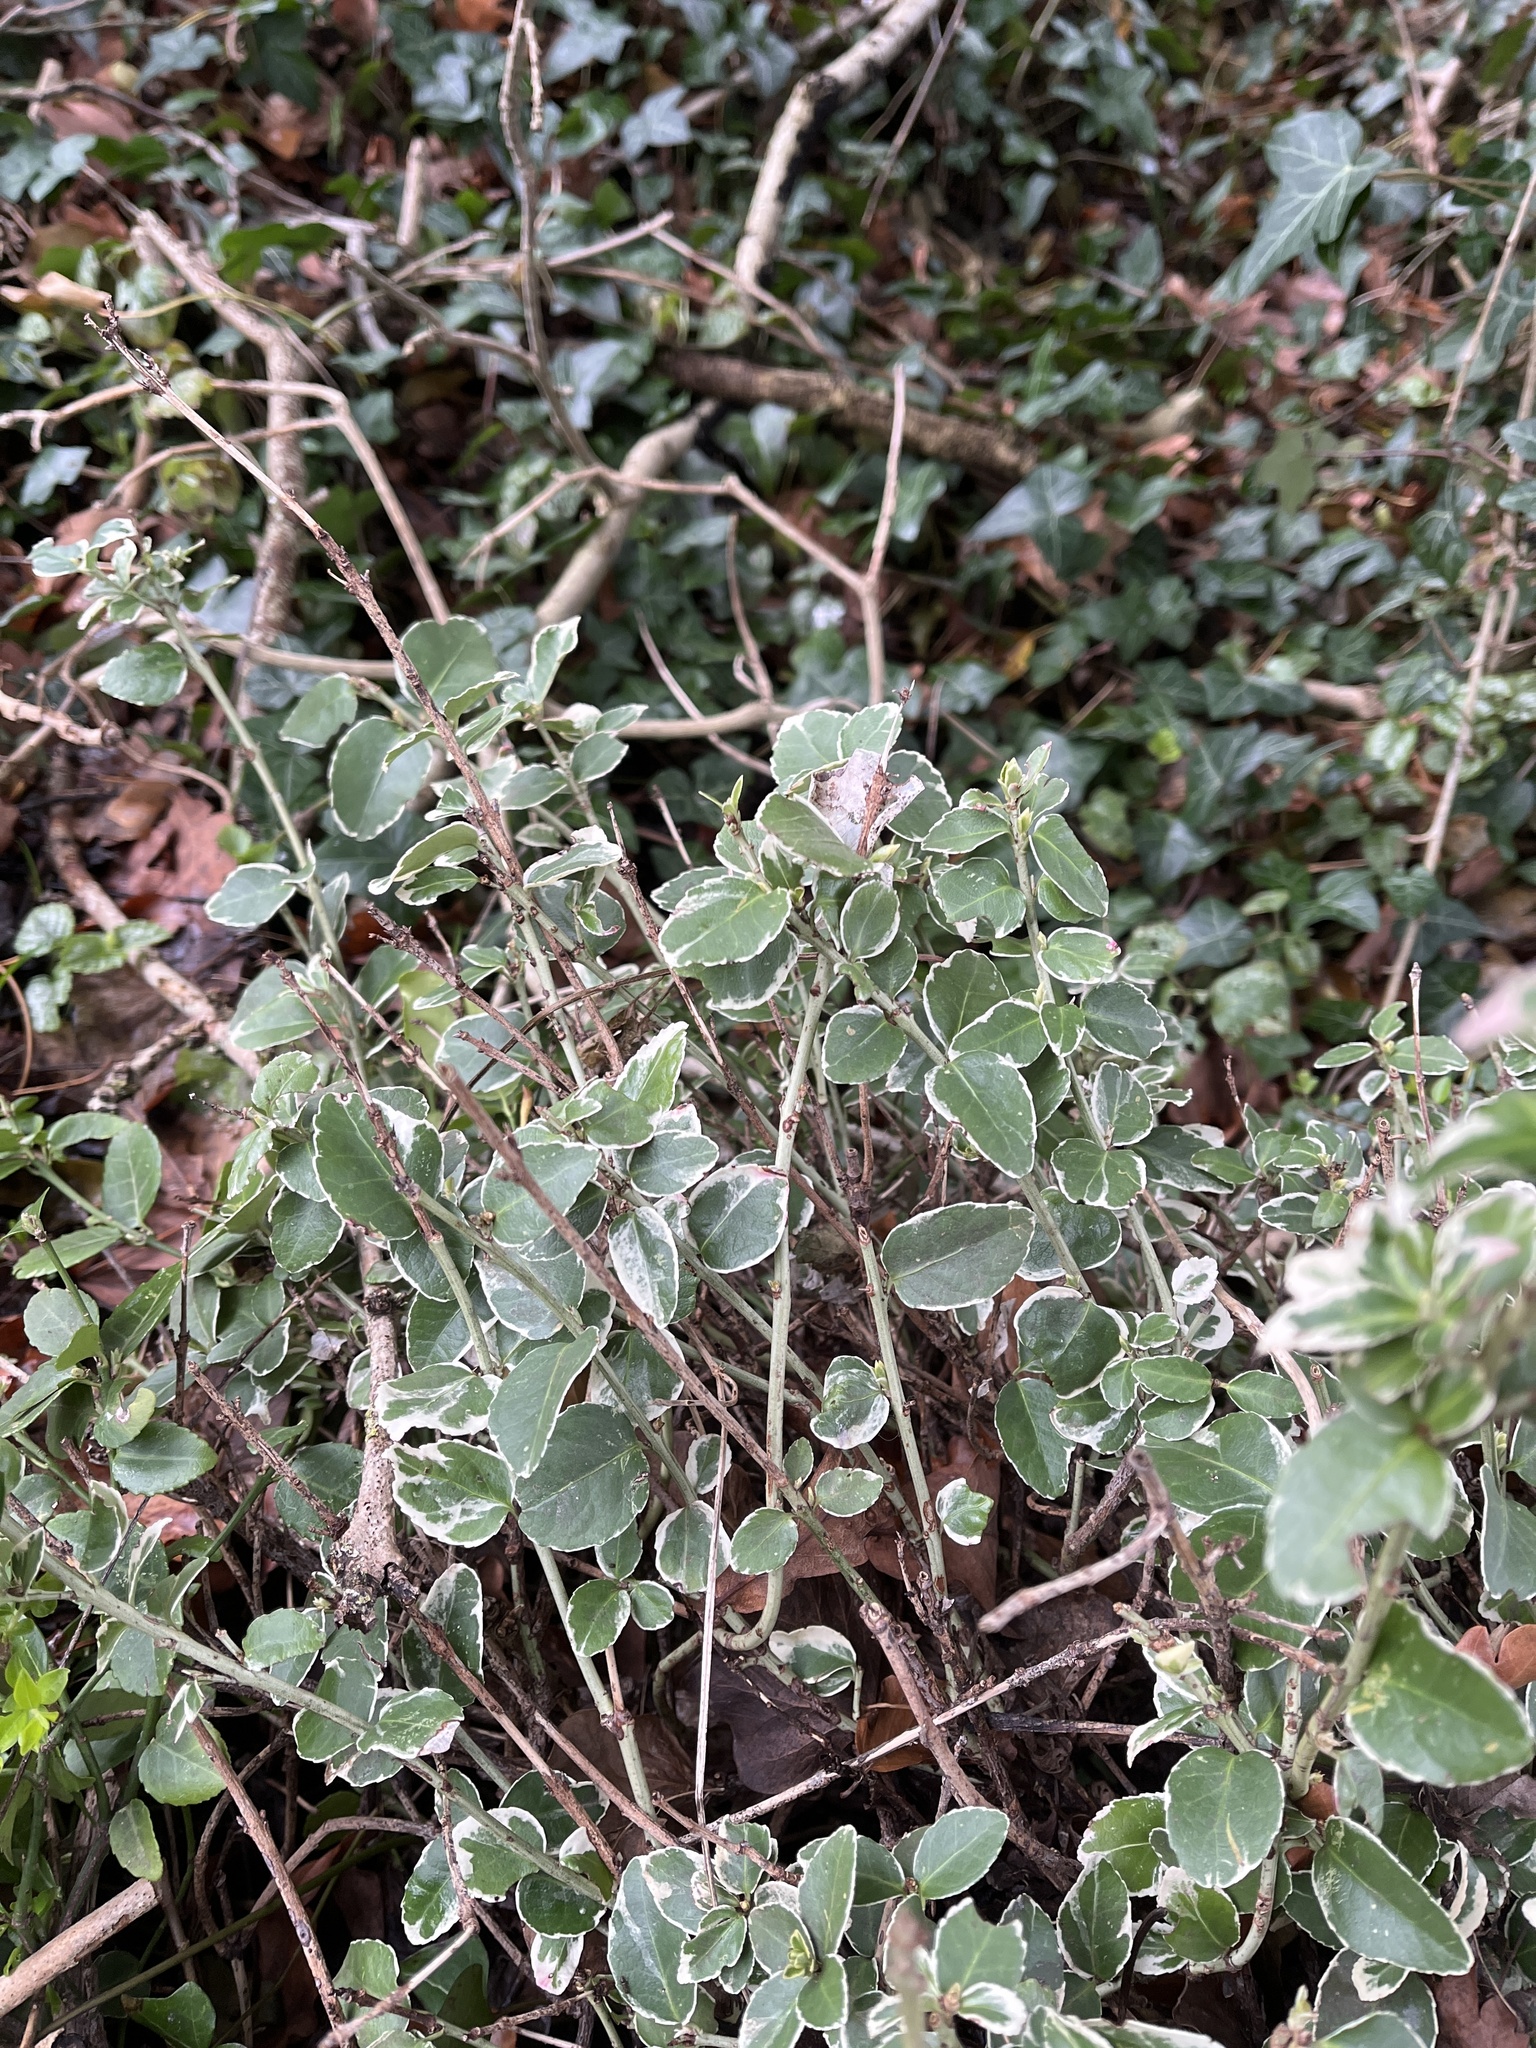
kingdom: Plantae
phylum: Tracheophyta
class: Magnoliopsida
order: Celastrales
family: Celastraceae
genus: Euonymus
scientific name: Euonymus fortunei
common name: Climbing euonymus
